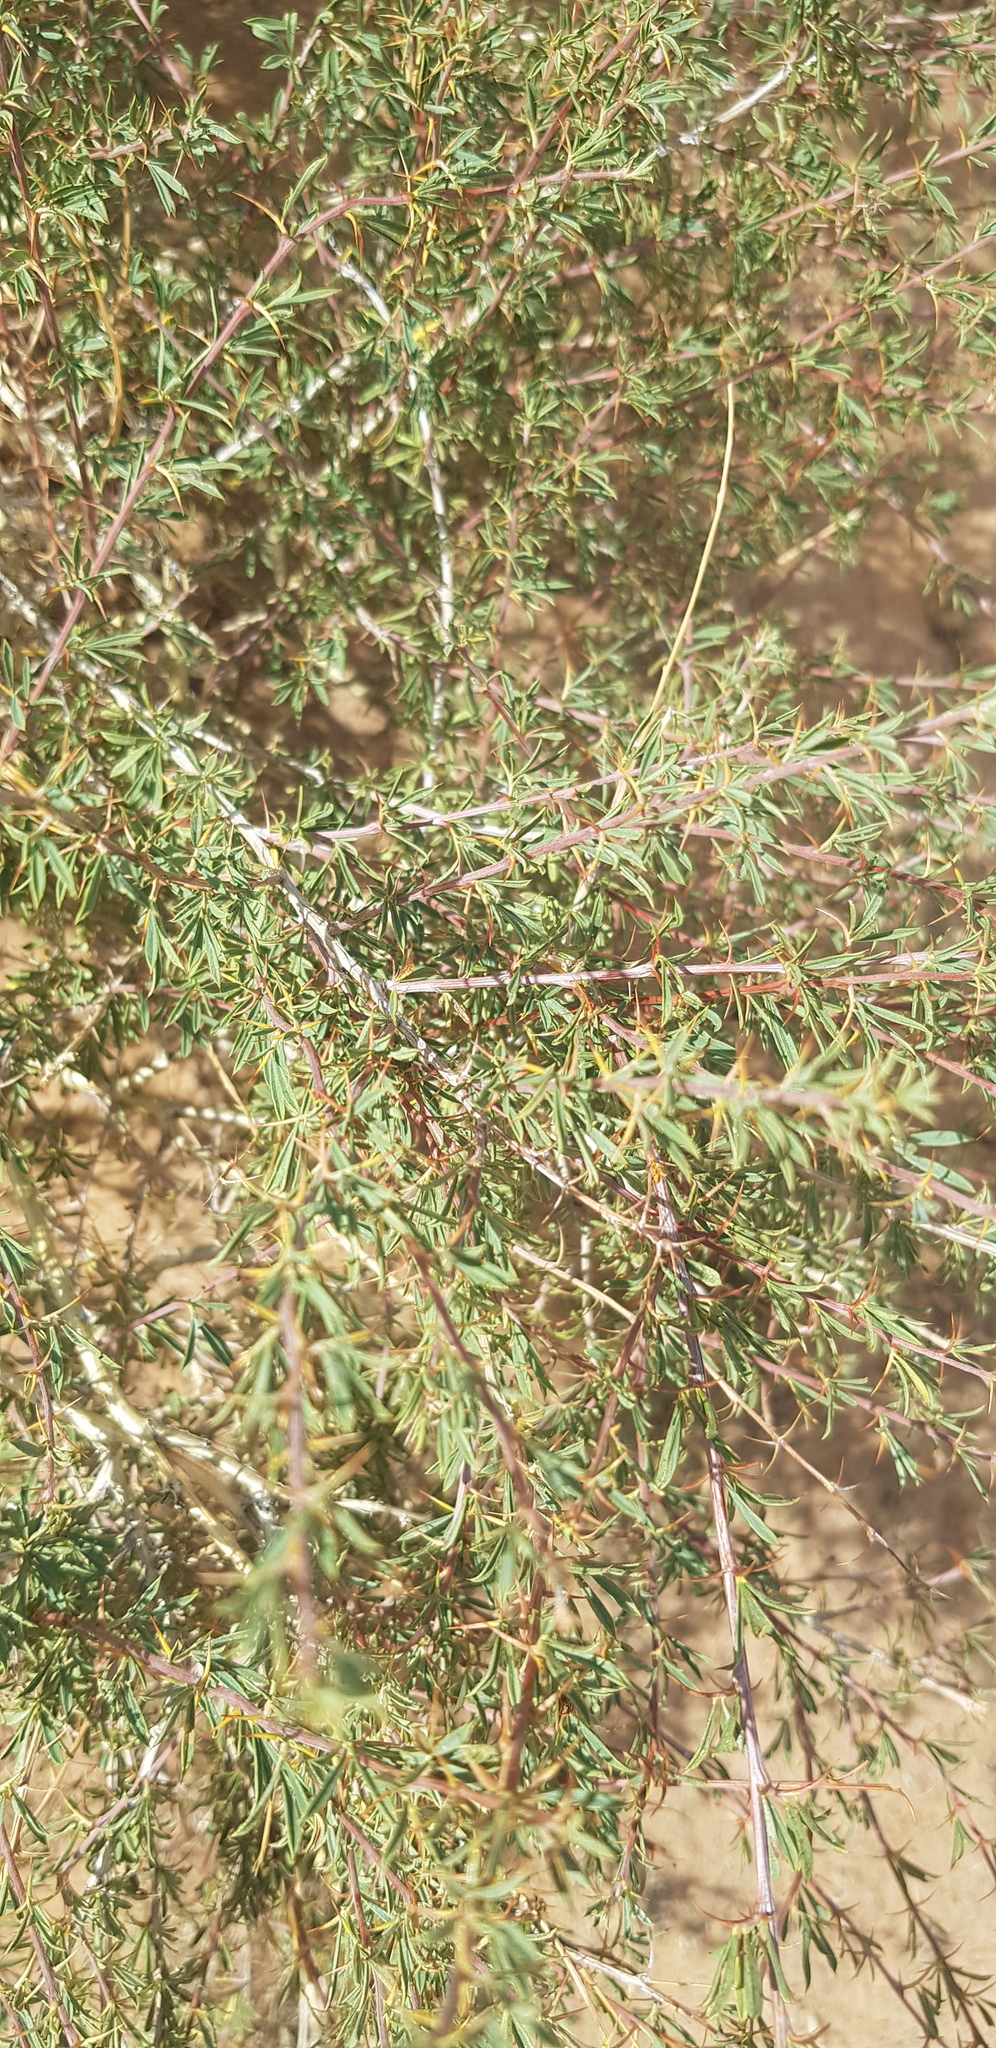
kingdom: Plantae
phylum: Tracheophyta
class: Magnoliopsida
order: Fabales
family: Fabaceae
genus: Caragana
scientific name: Caragana leucophloea
